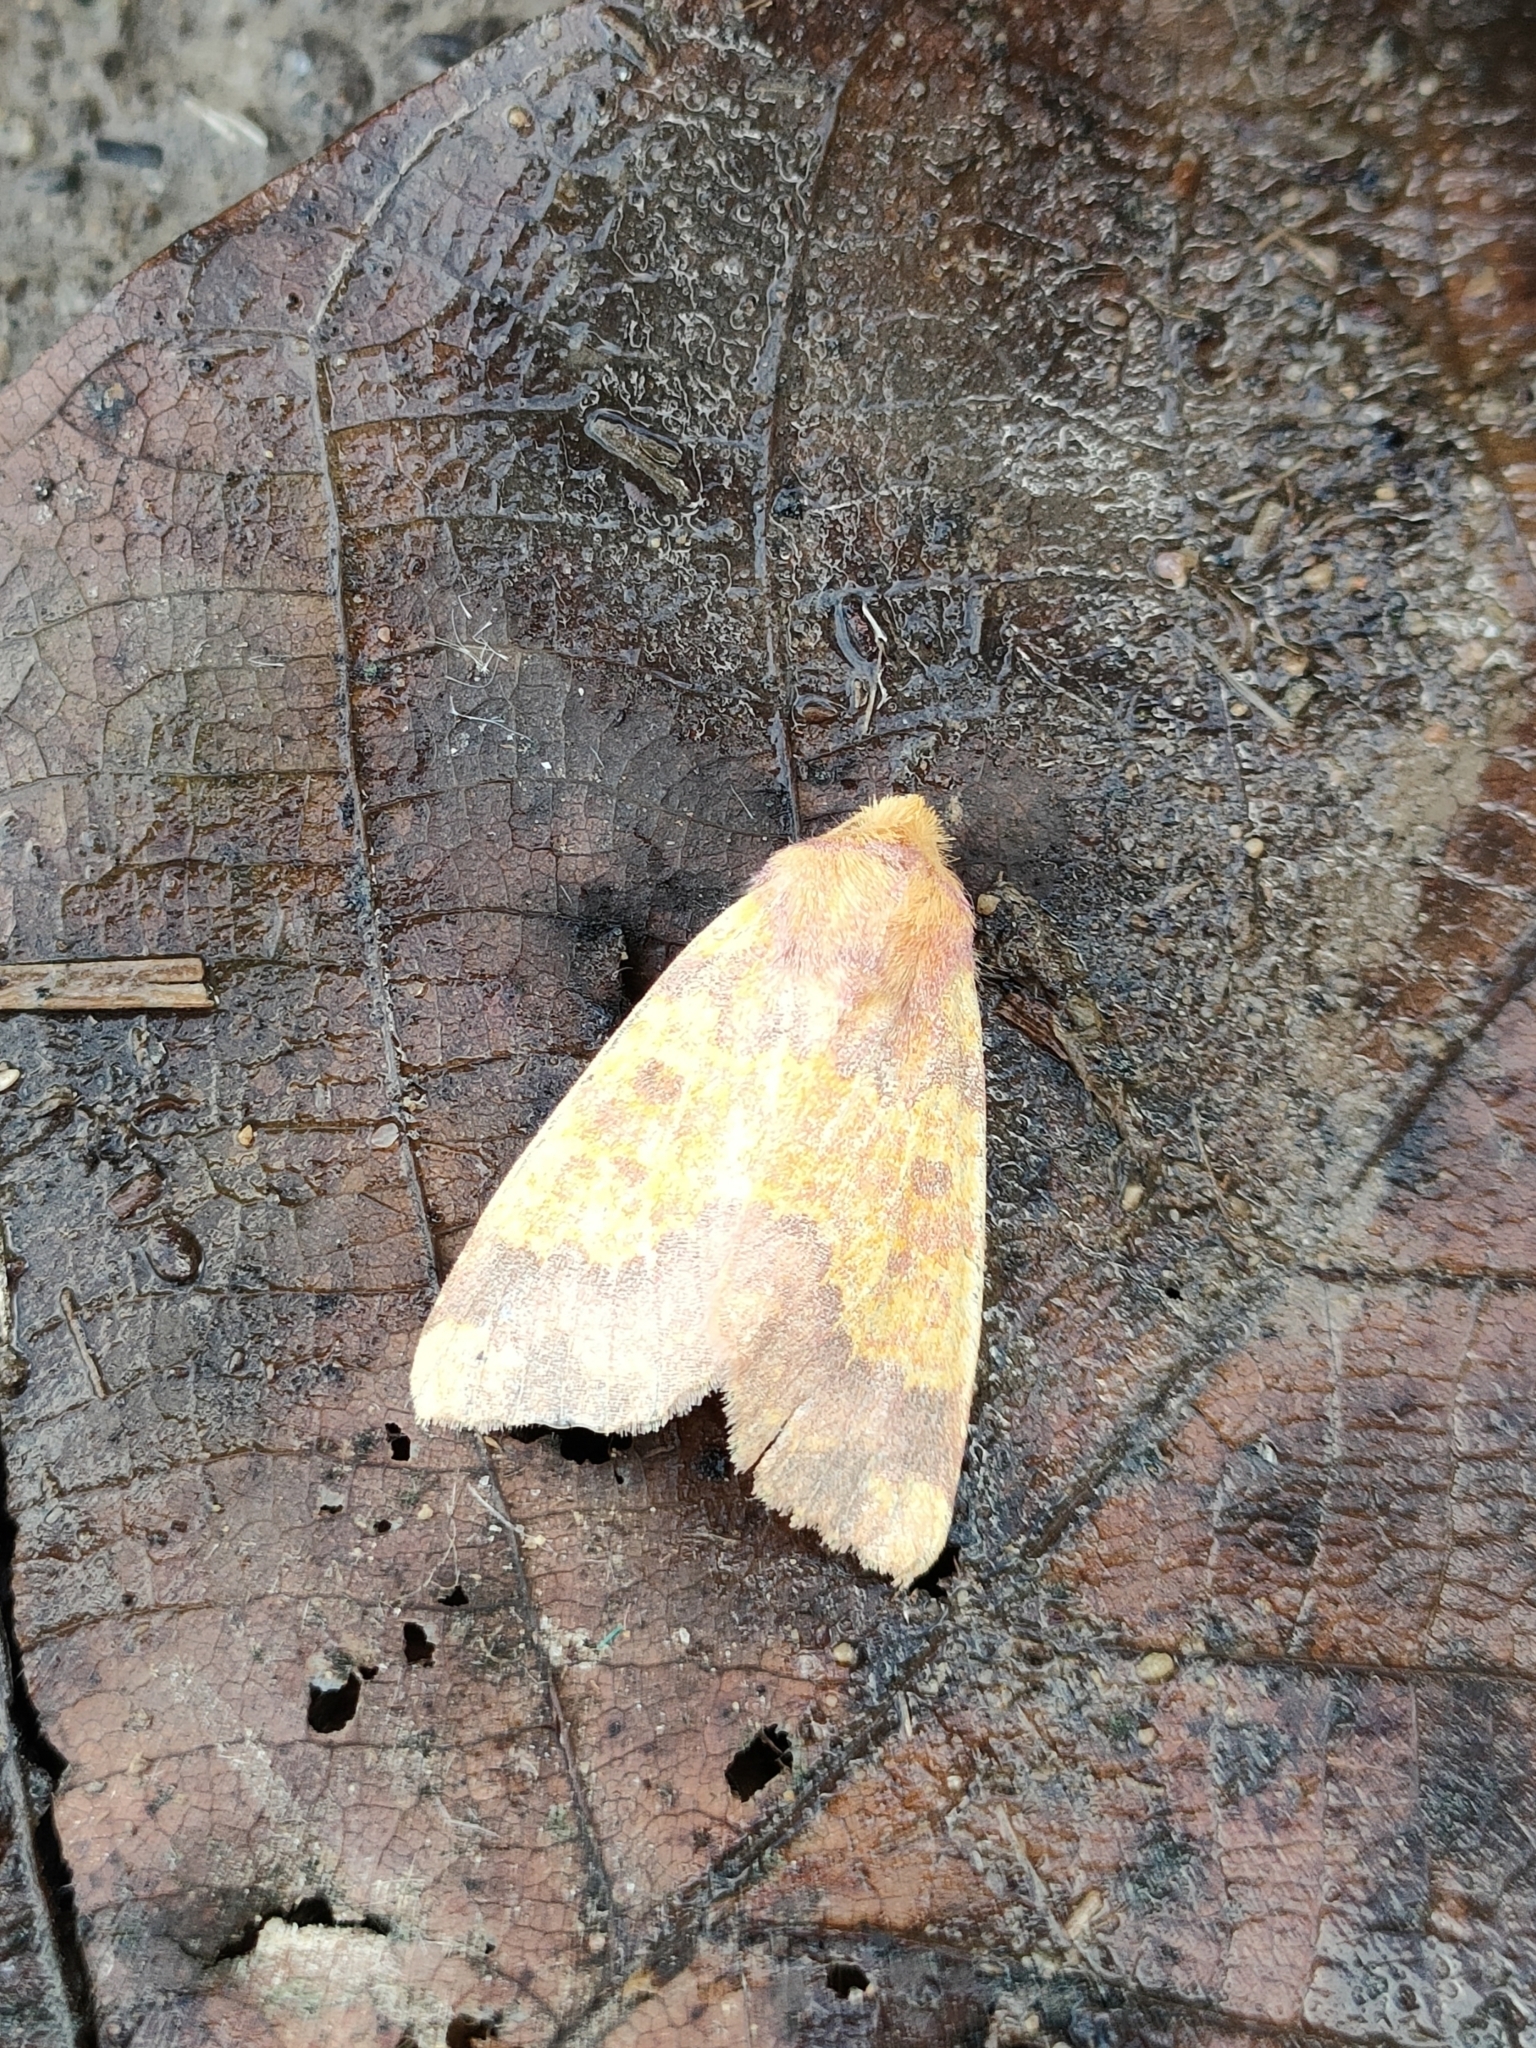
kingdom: Animalia
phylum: Arthropoda
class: Insecta
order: Lepidoptera
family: Noctuidae
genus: Tiliacea
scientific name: Tiliacea aurago
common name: Barred sallow
